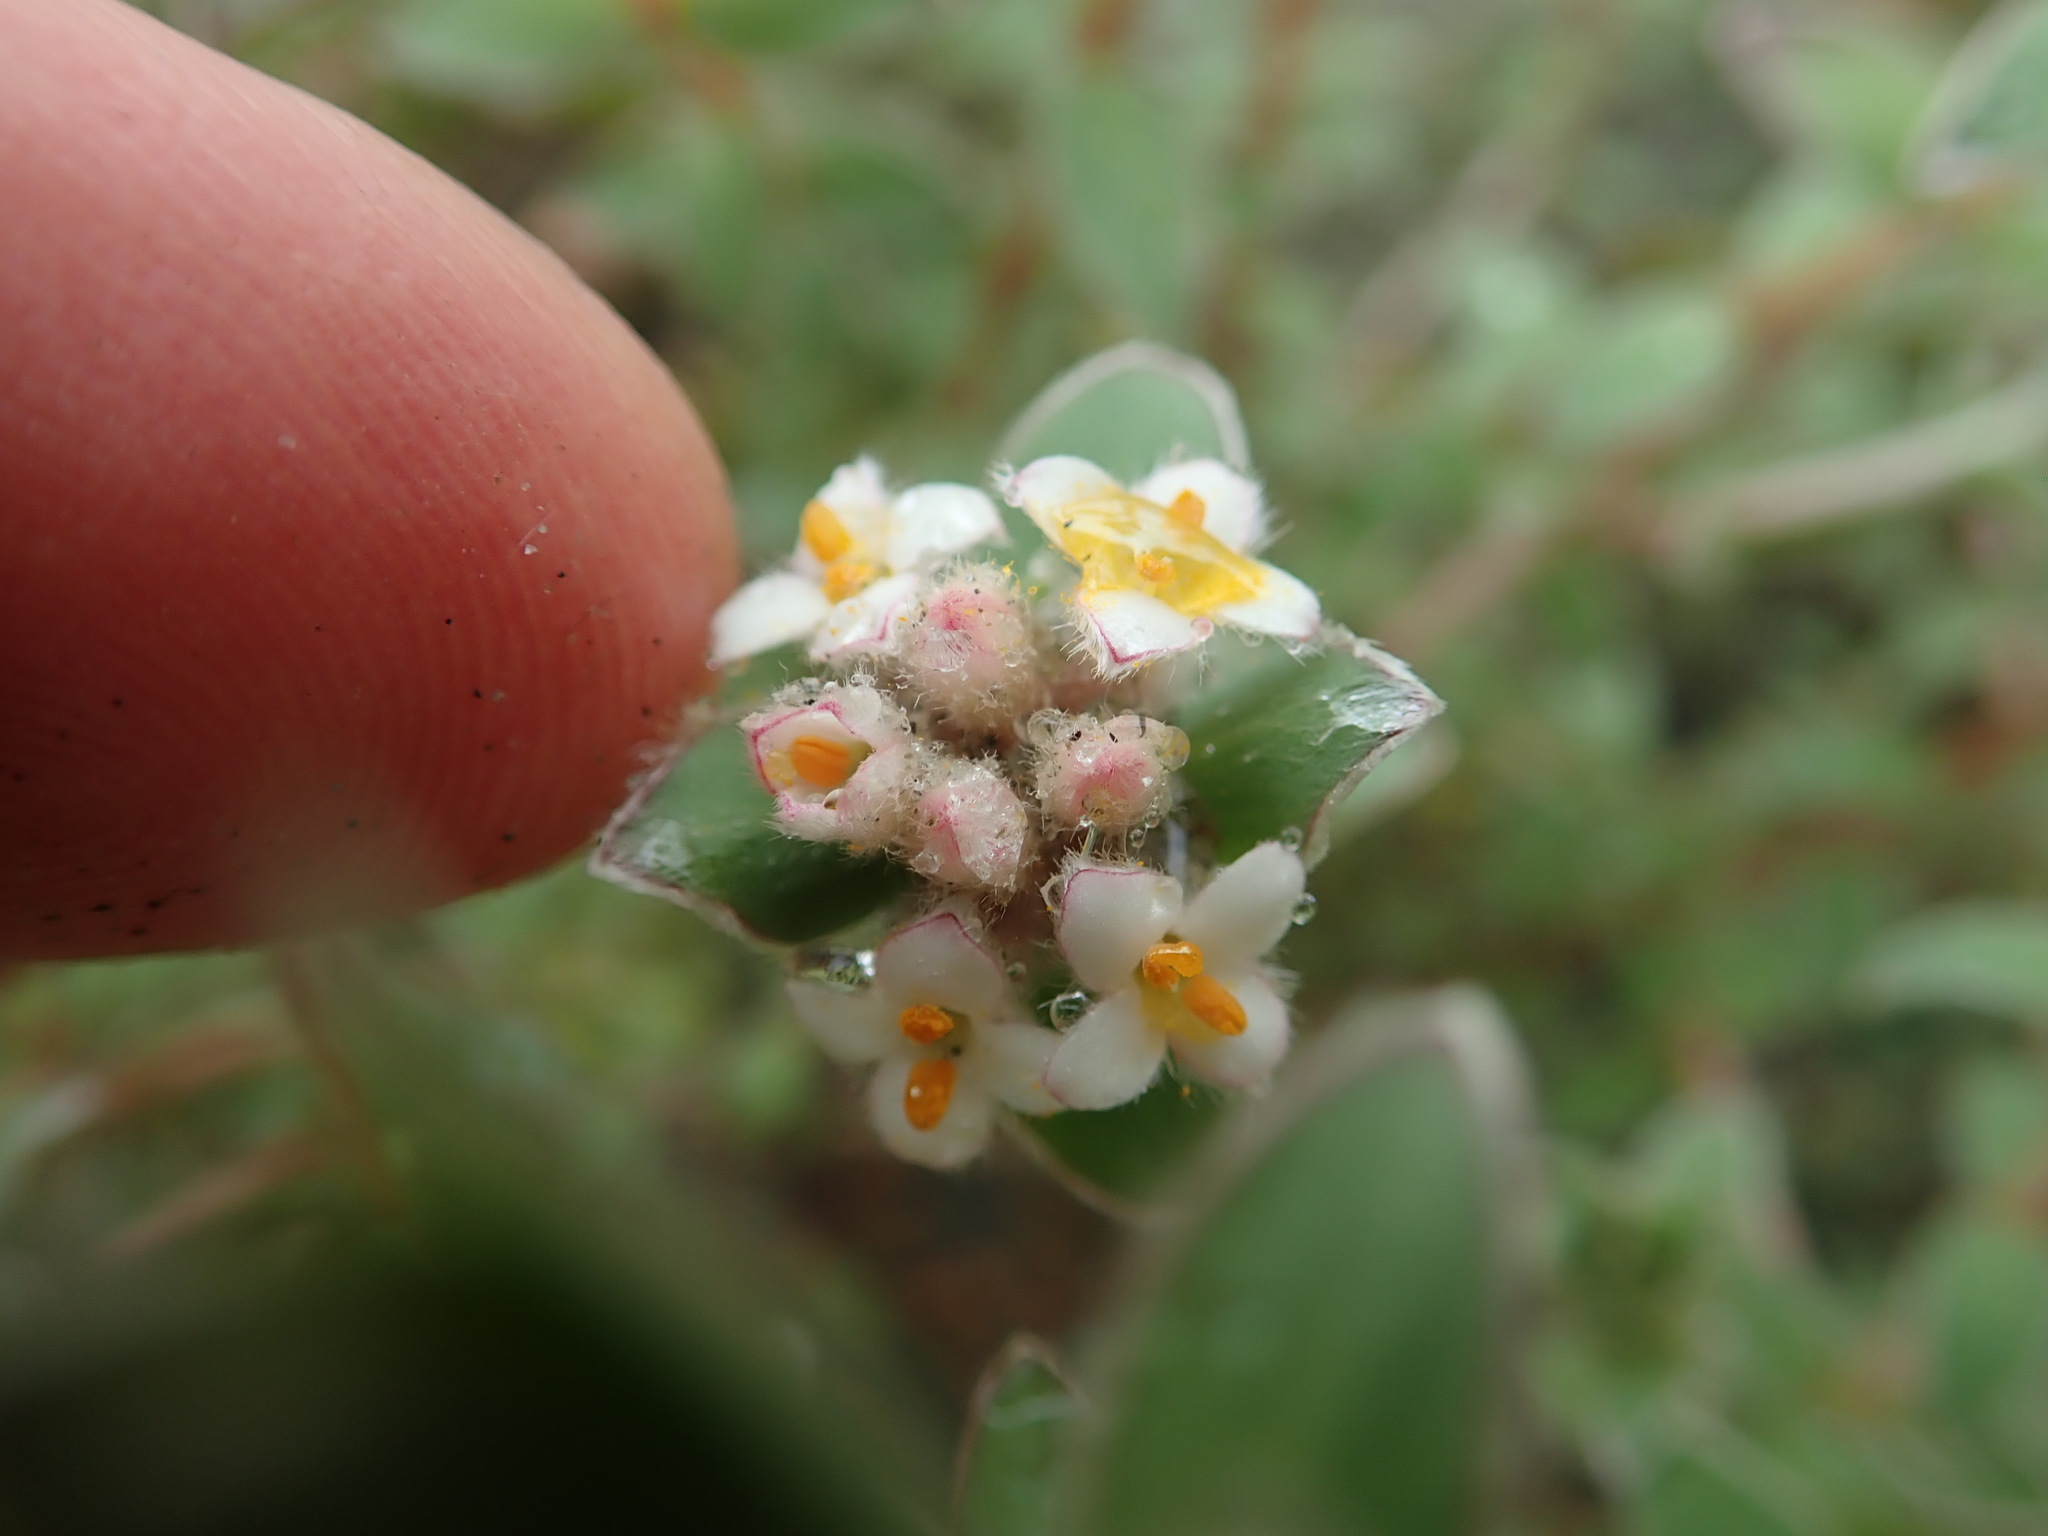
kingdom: Plantae
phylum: Tracheophyta
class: Magnoliopsida
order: Malvales
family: Thymelaeaceae
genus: Pimelea
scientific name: Pimelea villosa
